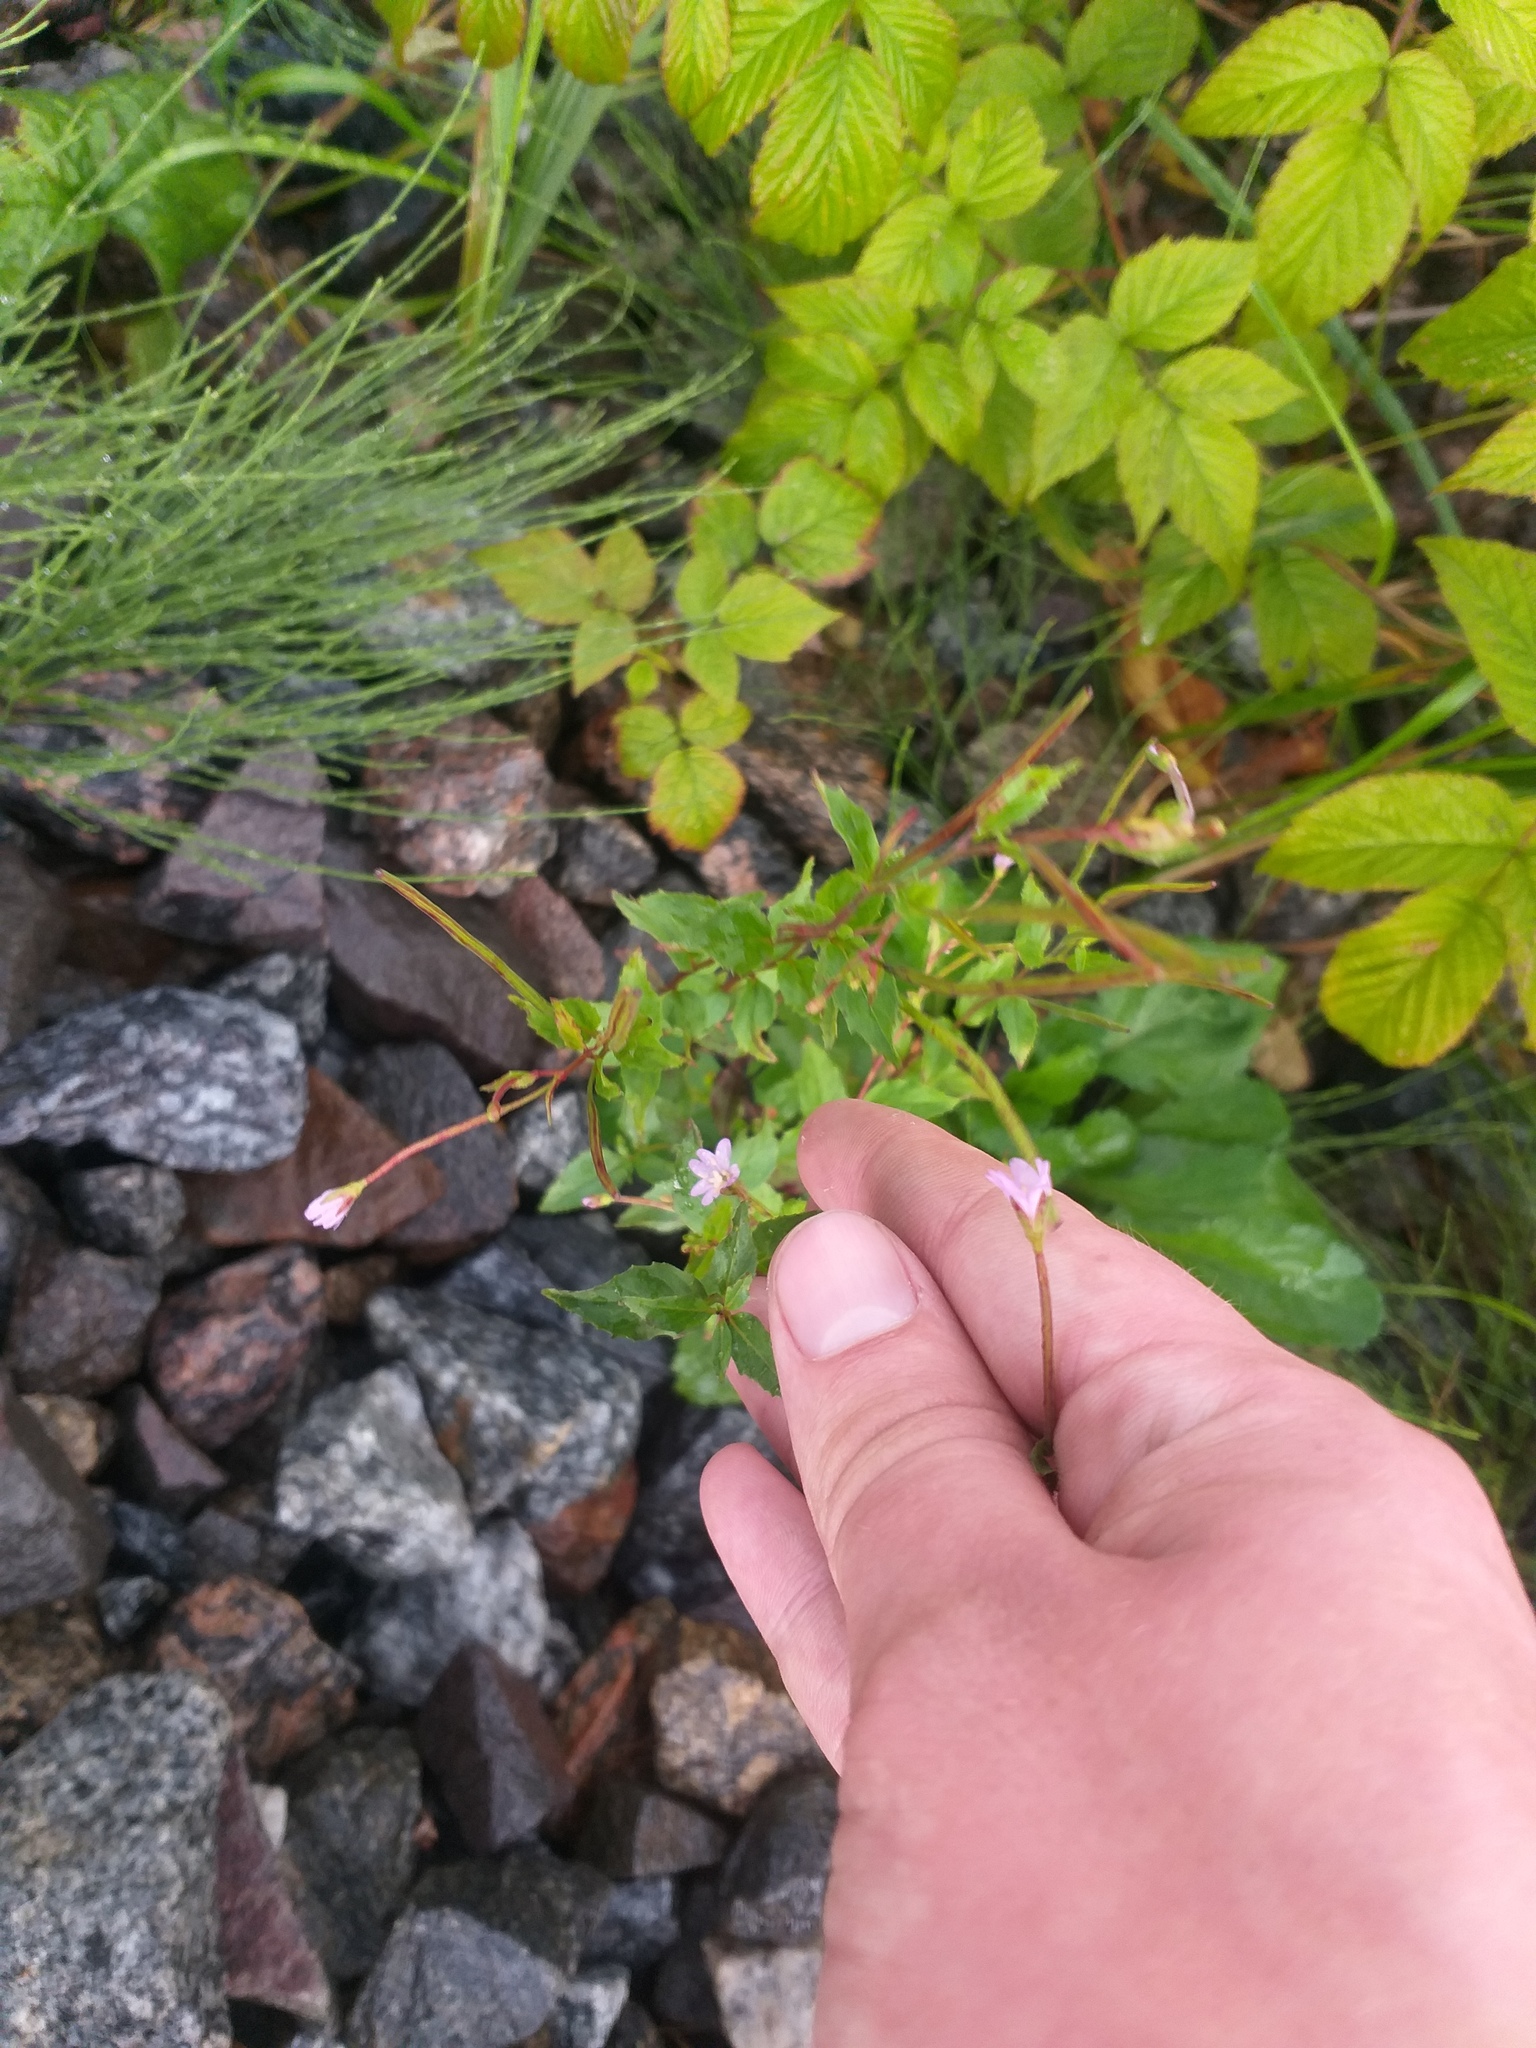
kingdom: Plantae
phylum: Tracheophyta
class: Magnoliopsida
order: Myrtales
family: Onagraceae
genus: Epilobium
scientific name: Epilobium montanum
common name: Broad-leaved willowherb
